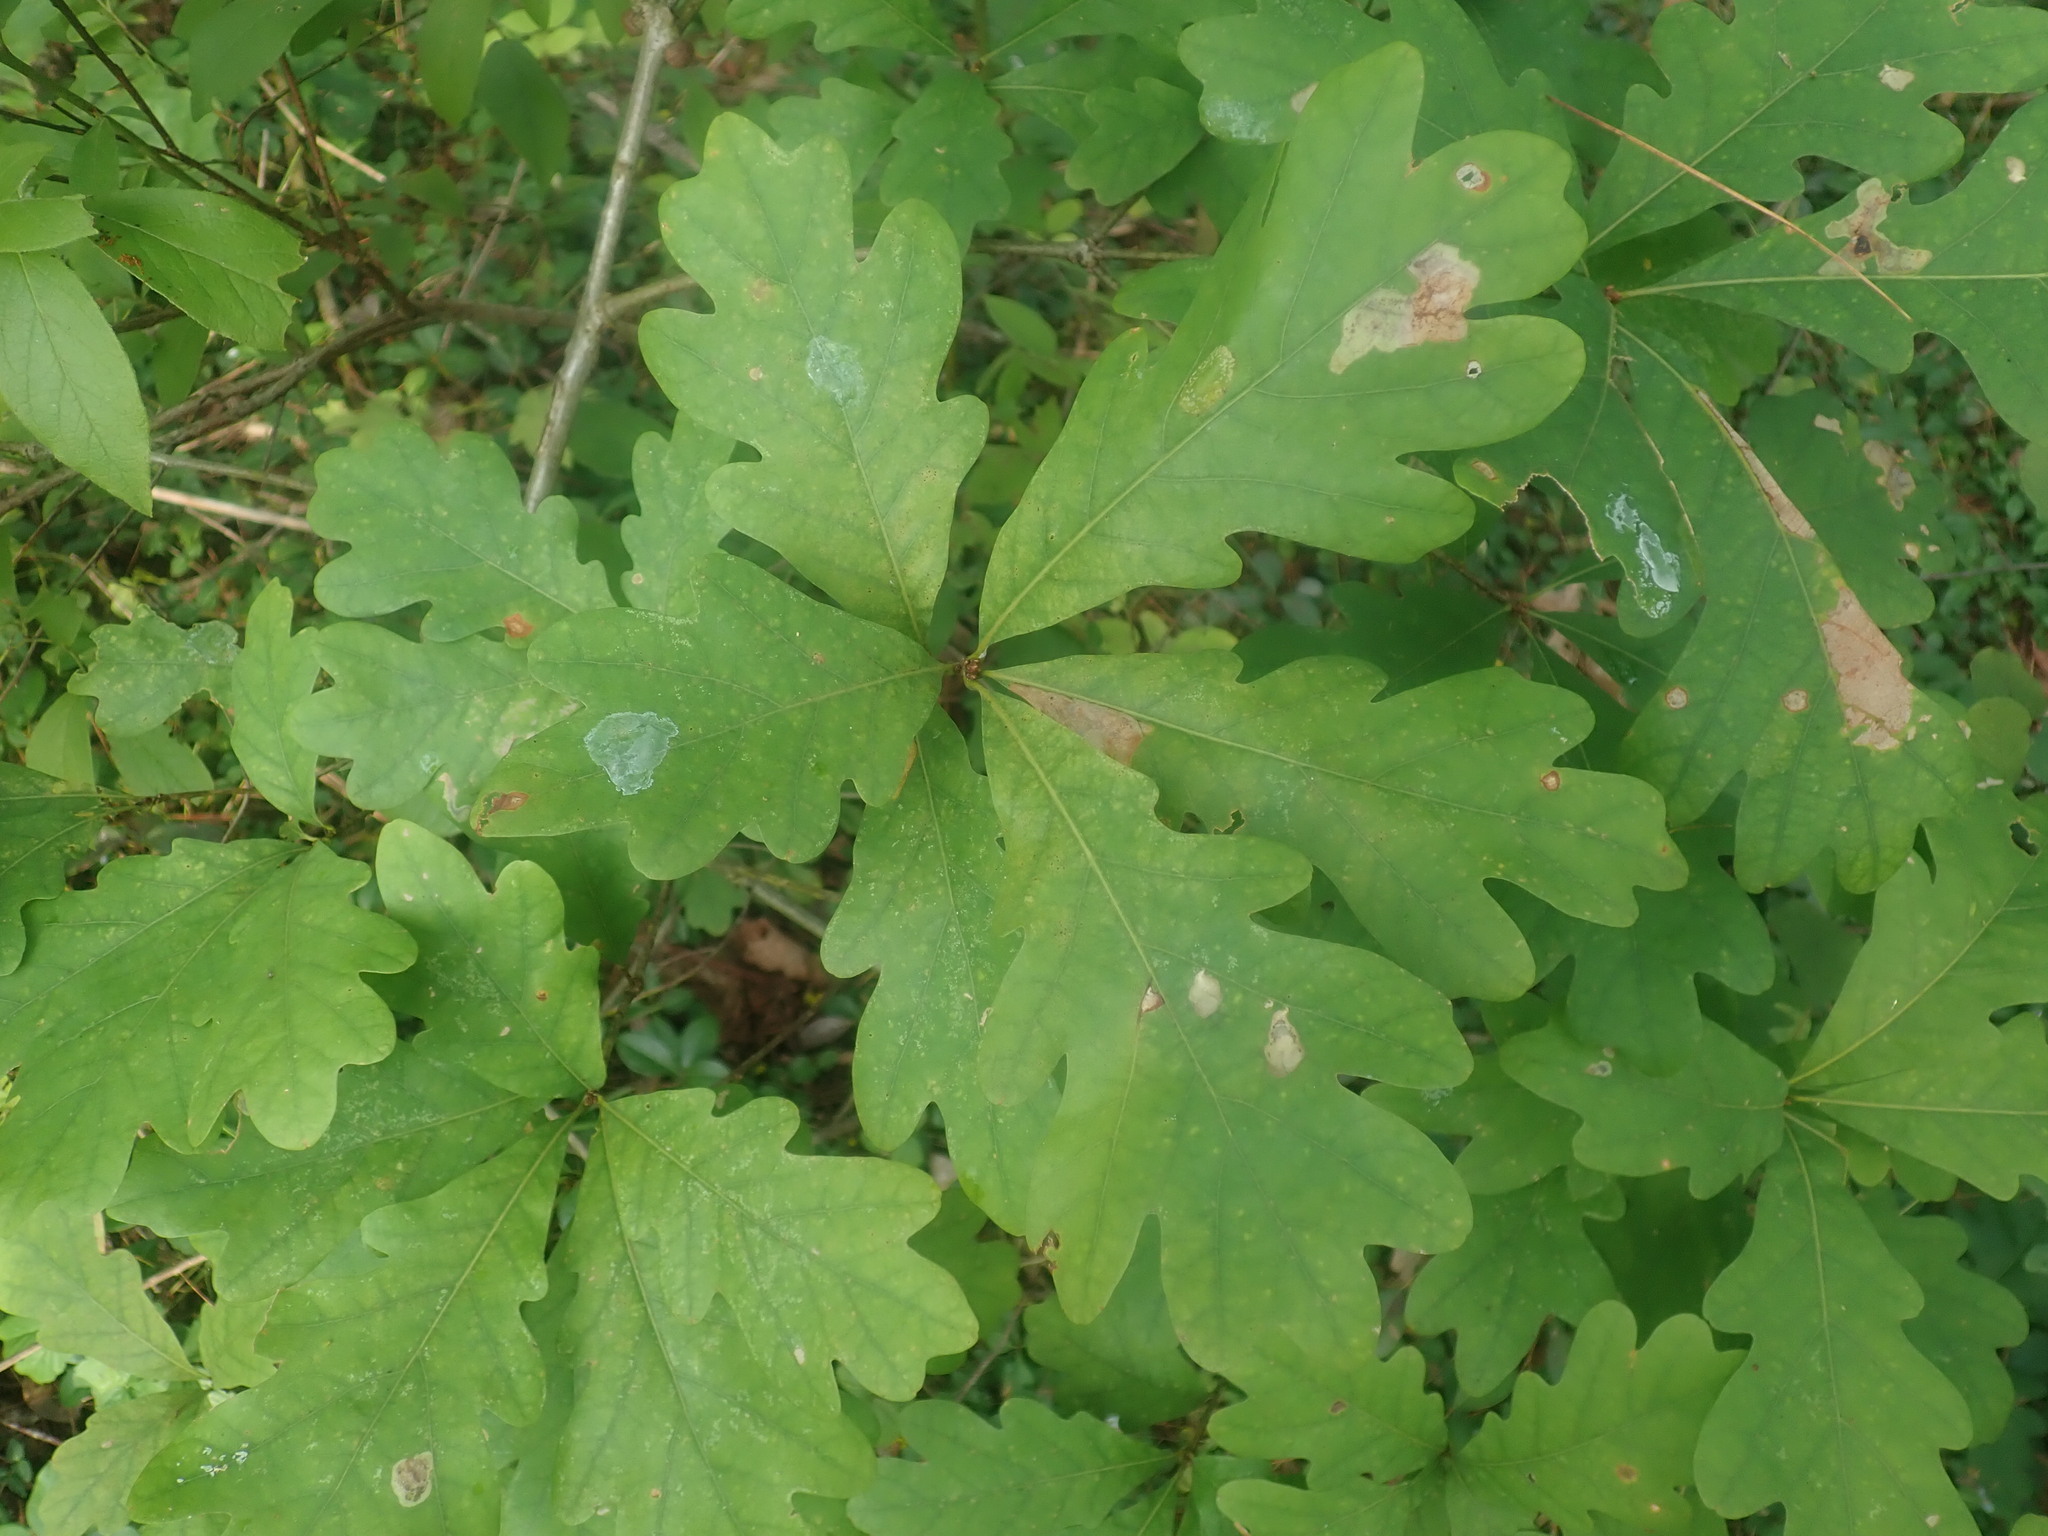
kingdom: Plantae
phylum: Tracheophyta
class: Magnoliopsida
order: Fagales
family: Fagaceae
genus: Quercus
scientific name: Quercus alba
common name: White oak
